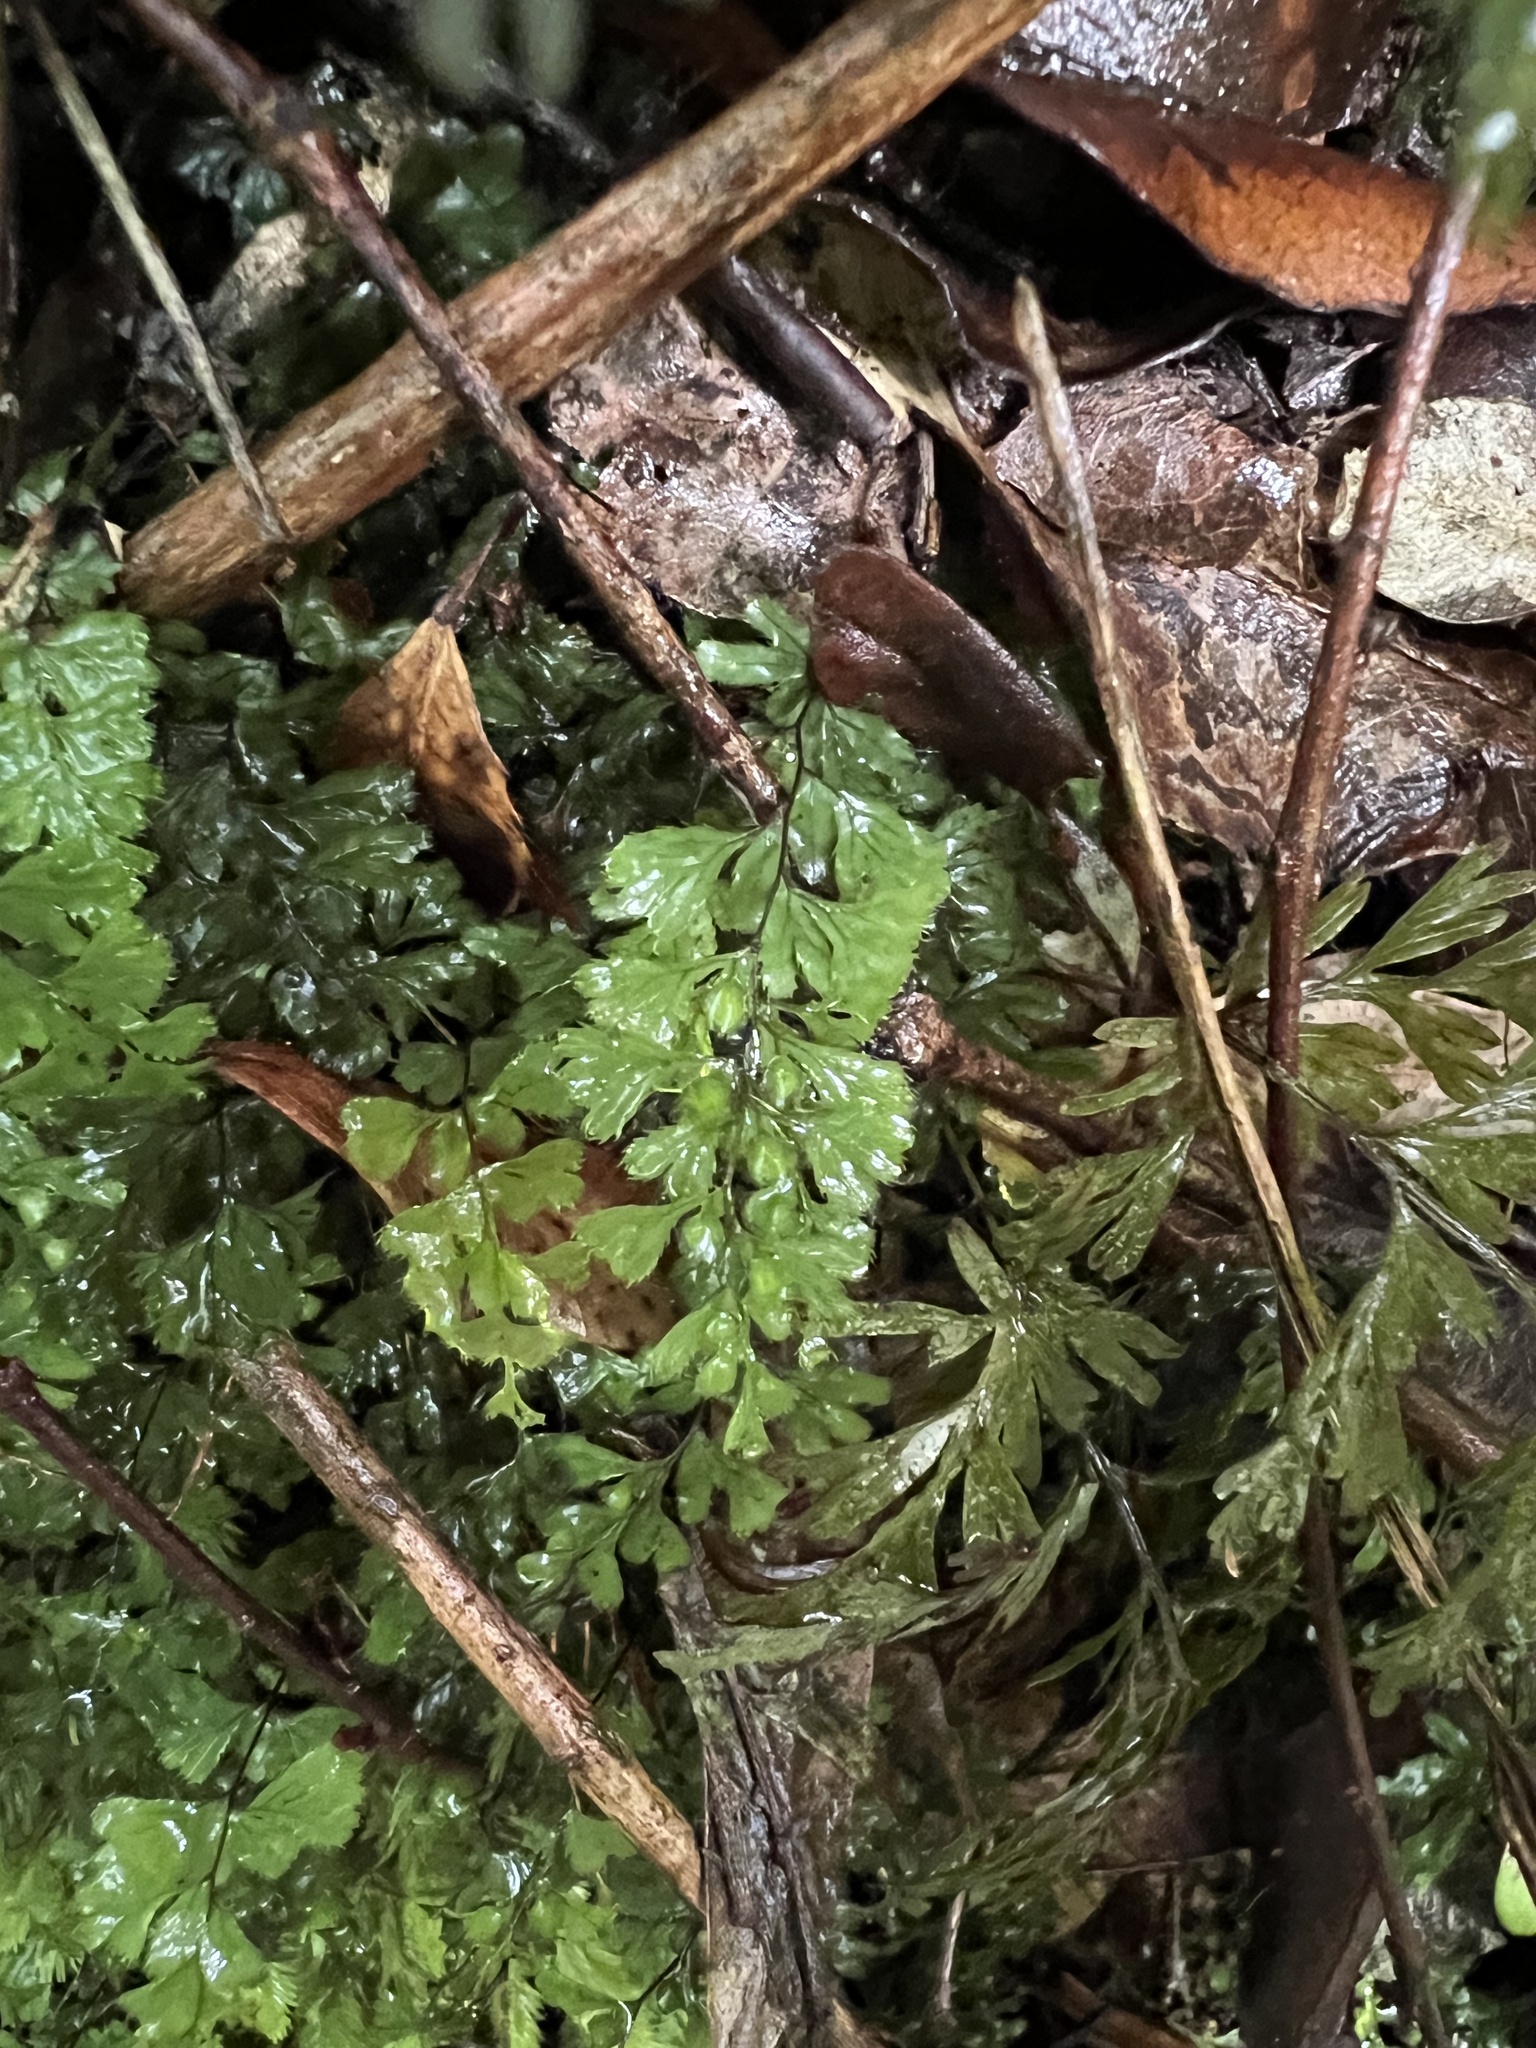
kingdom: Plantae
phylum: Tracheophyta
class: Polypodiopsida
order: Hymenophyllales
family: Hymenophyllaceae
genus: Hymenophyllum
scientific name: Hymenophyllum revolutum
